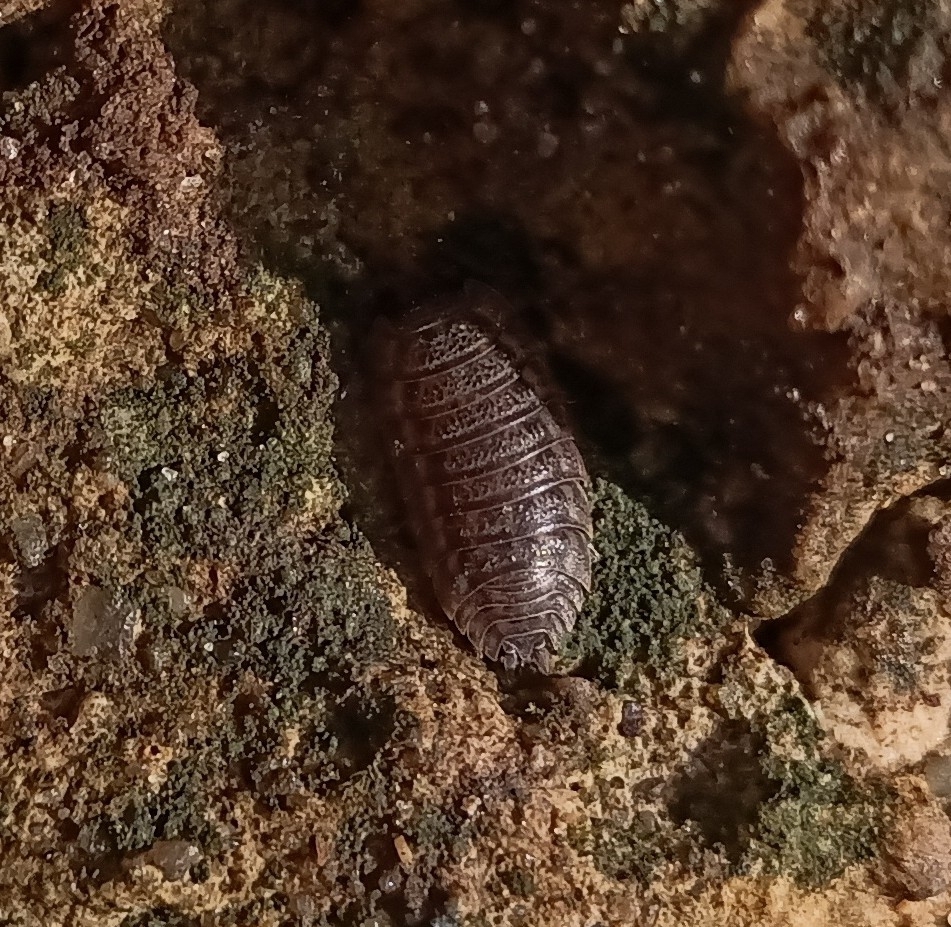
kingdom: Animalia
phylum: Arthropoda
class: Malacostraca
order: Isopoda
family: Trachelipodidae
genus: Trachelipus
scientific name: Trachelipus rathkii
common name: Isopod
